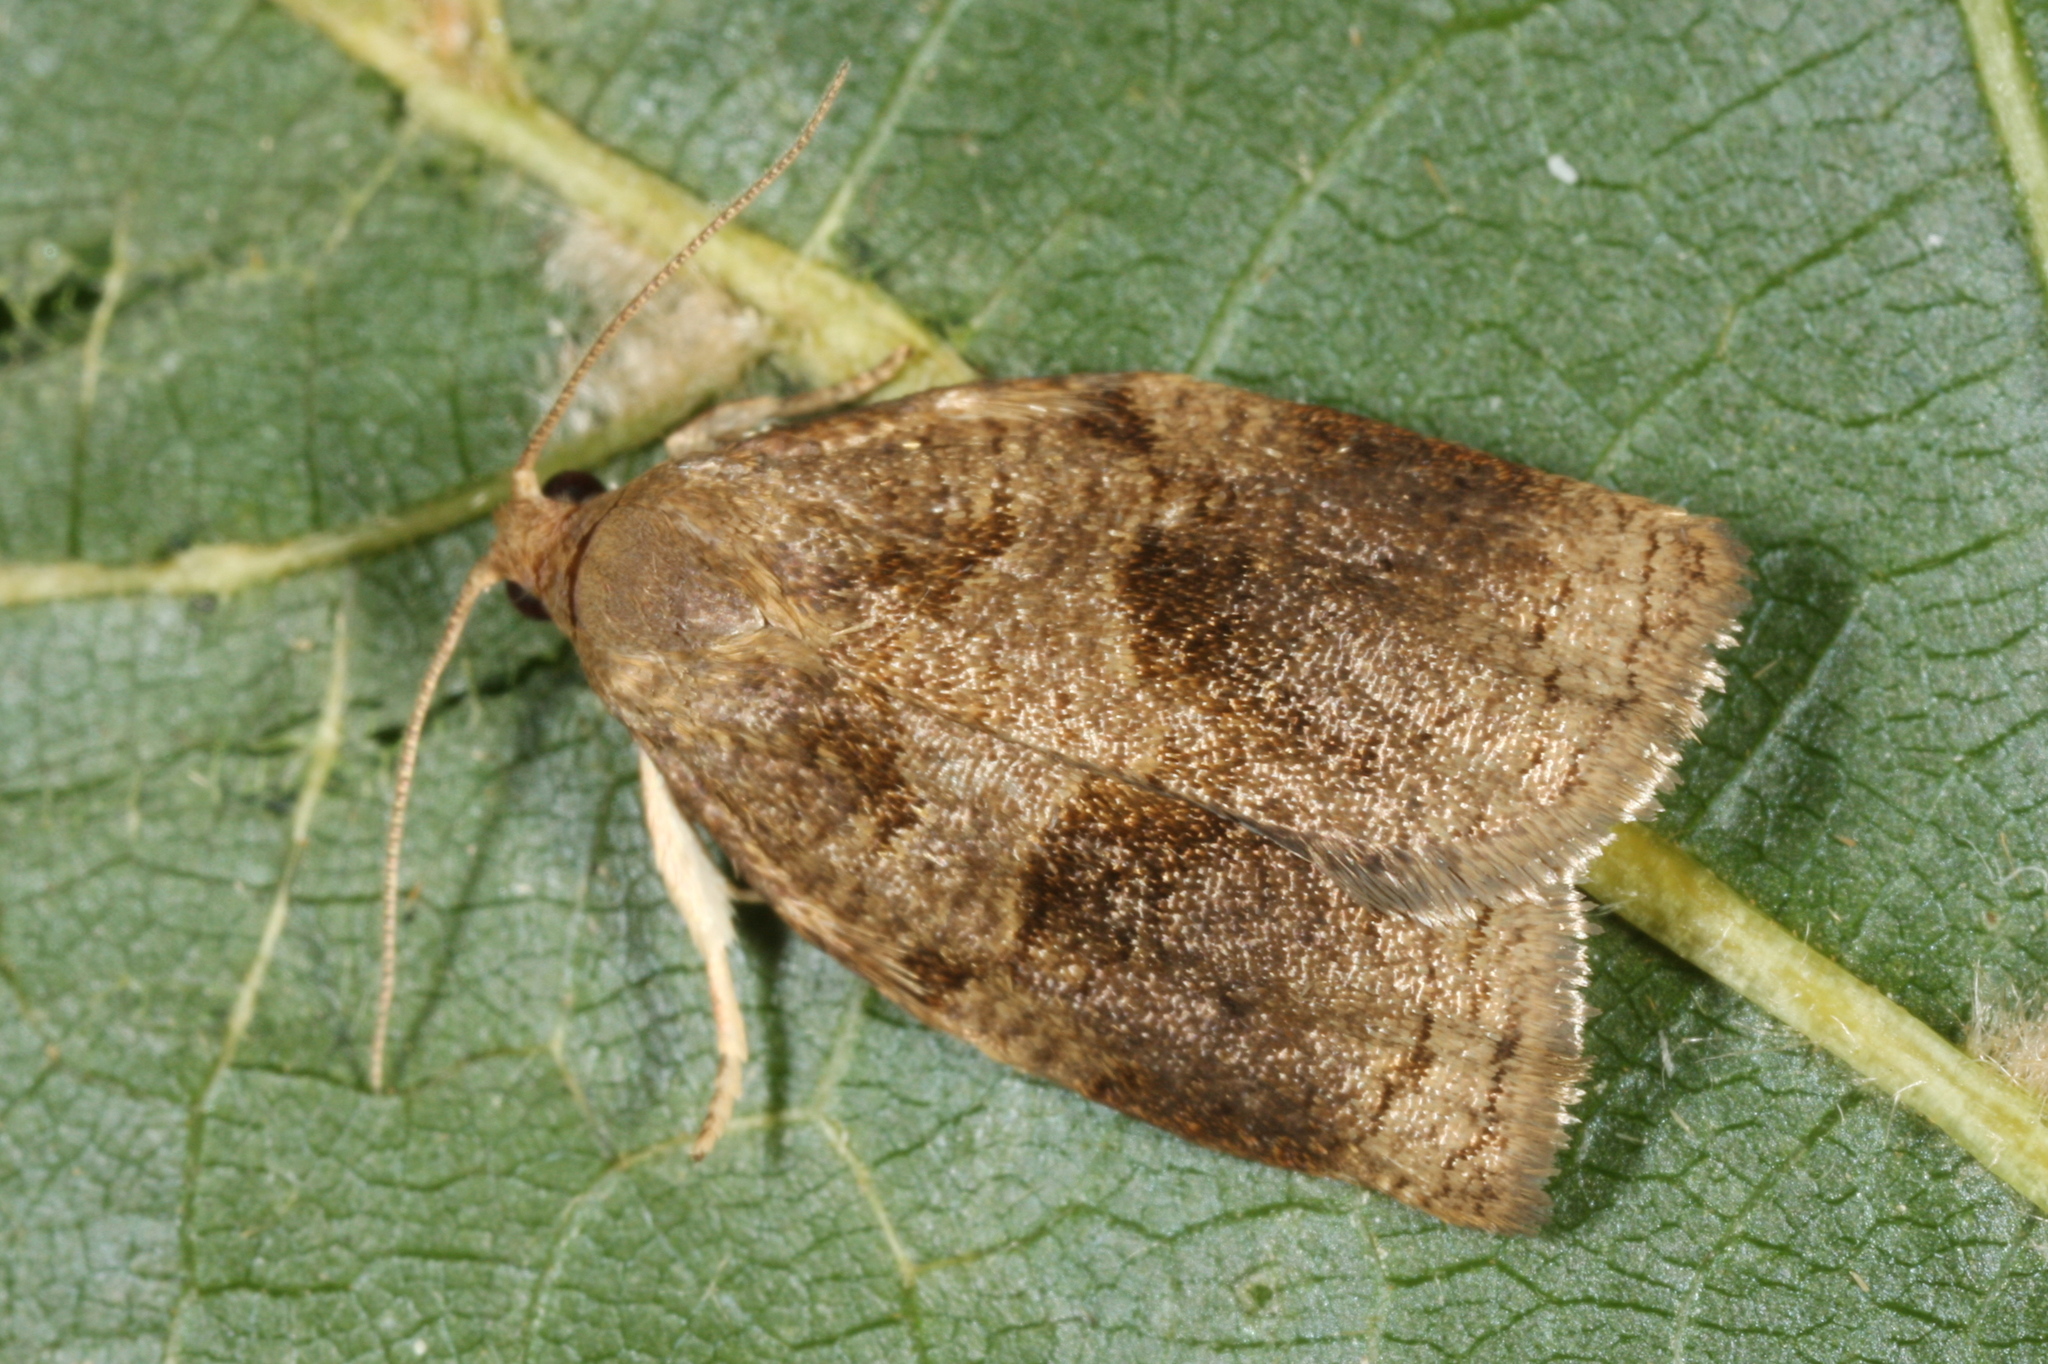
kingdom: Animalia
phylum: Arthropoda
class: Insecta
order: Lepidoptera
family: Tortricidae
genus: Archips
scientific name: Archips rosana
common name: Rose tortrix
